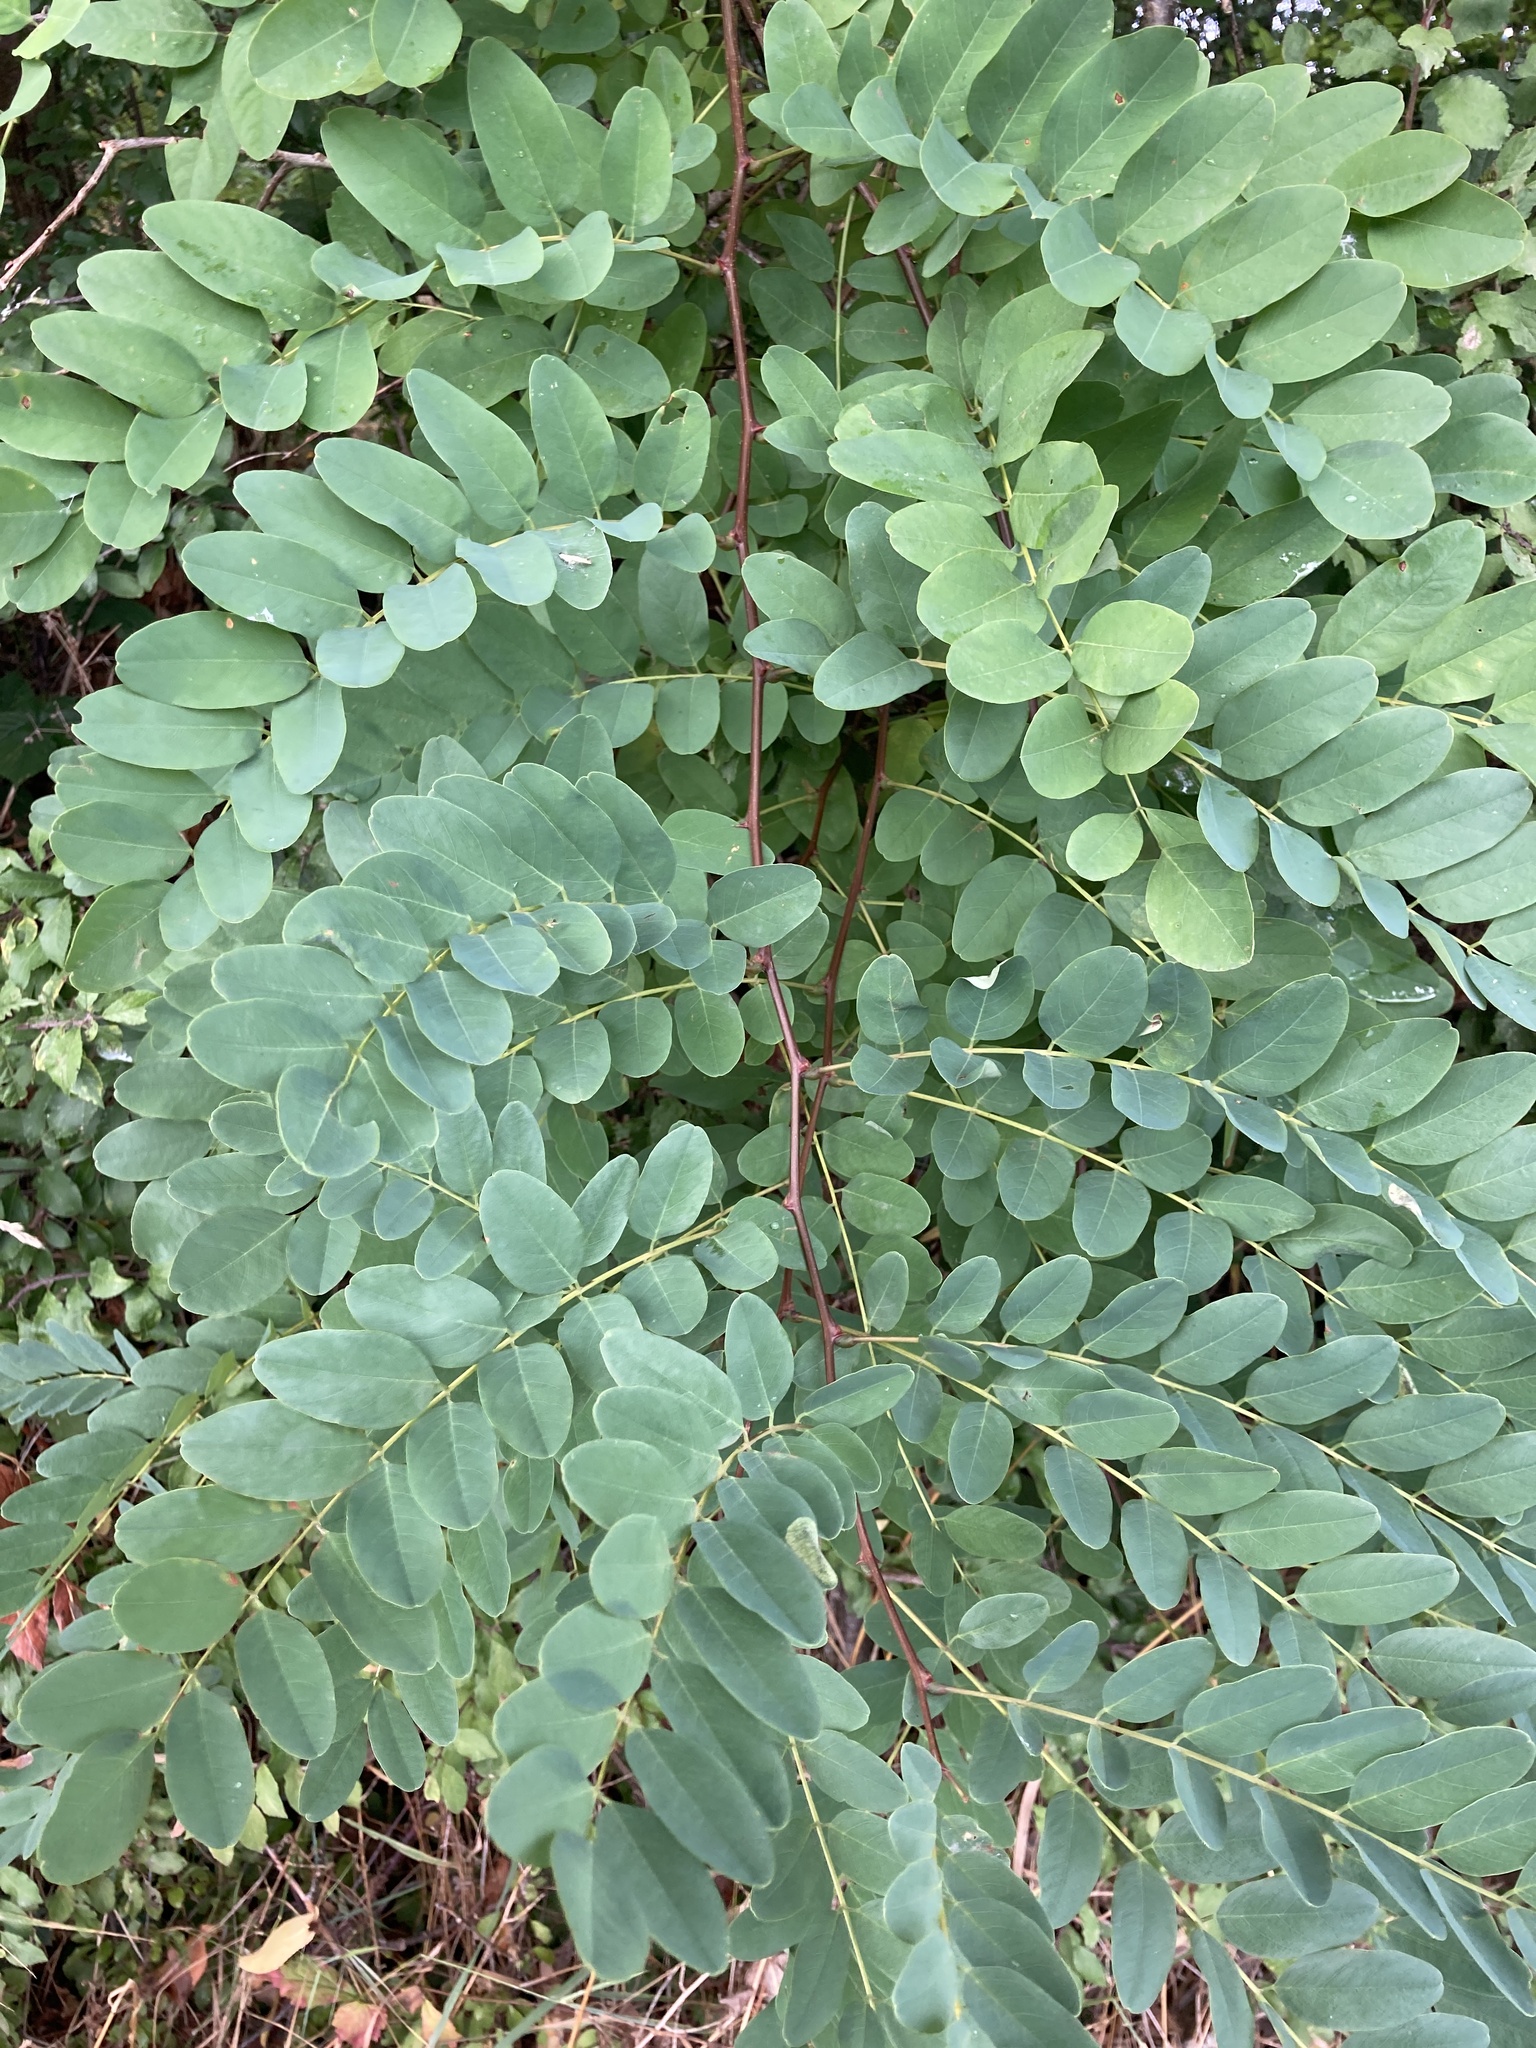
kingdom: Plantae
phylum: Tracheophyta
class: Magnoliopsida
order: Fabales
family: Fabaceae
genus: Robinia
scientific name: Robinia pseudoacacia
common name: Black locust
